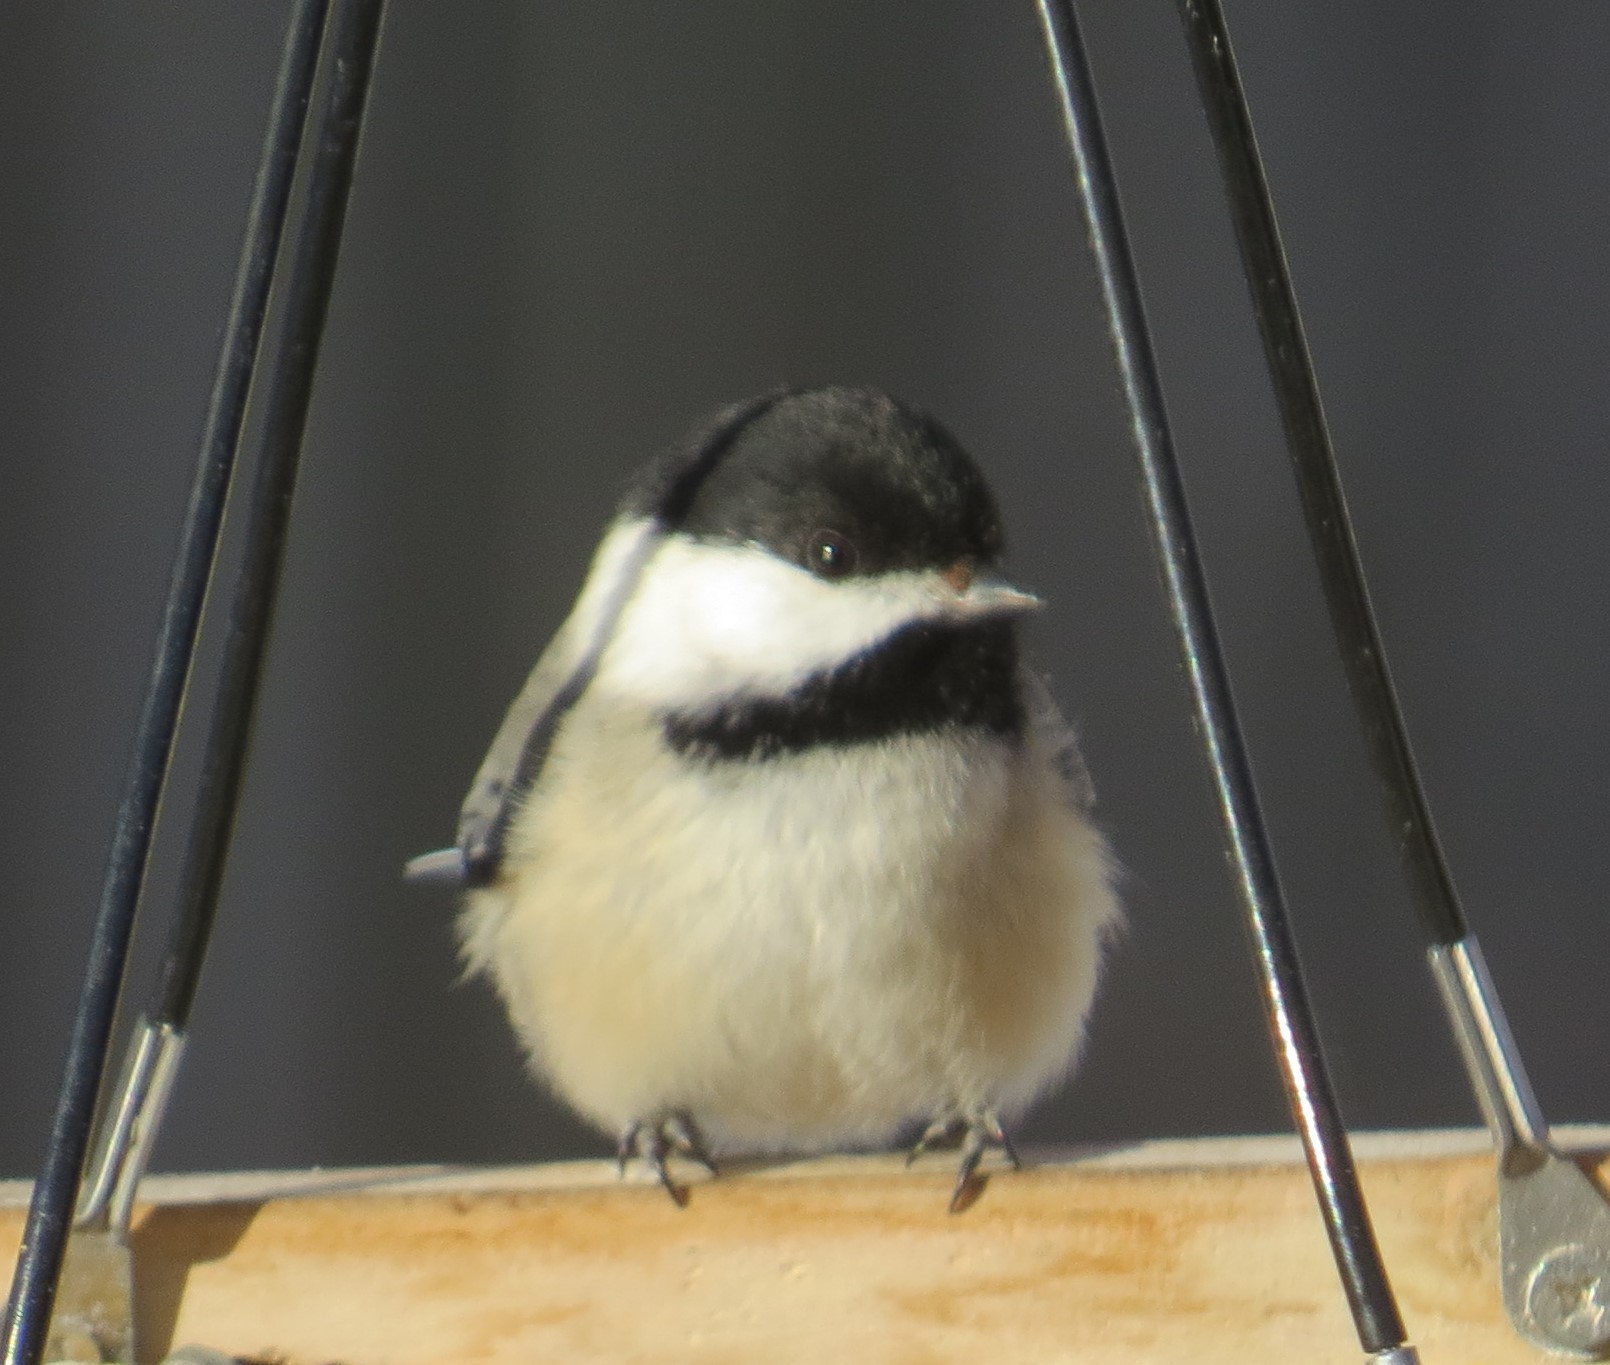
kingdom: Animalia
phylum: Chordata
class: Aves
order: Passeriformes
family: Paridae
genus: Poecile
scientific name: Poecile atricapillus
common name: Black-capped chickadee
